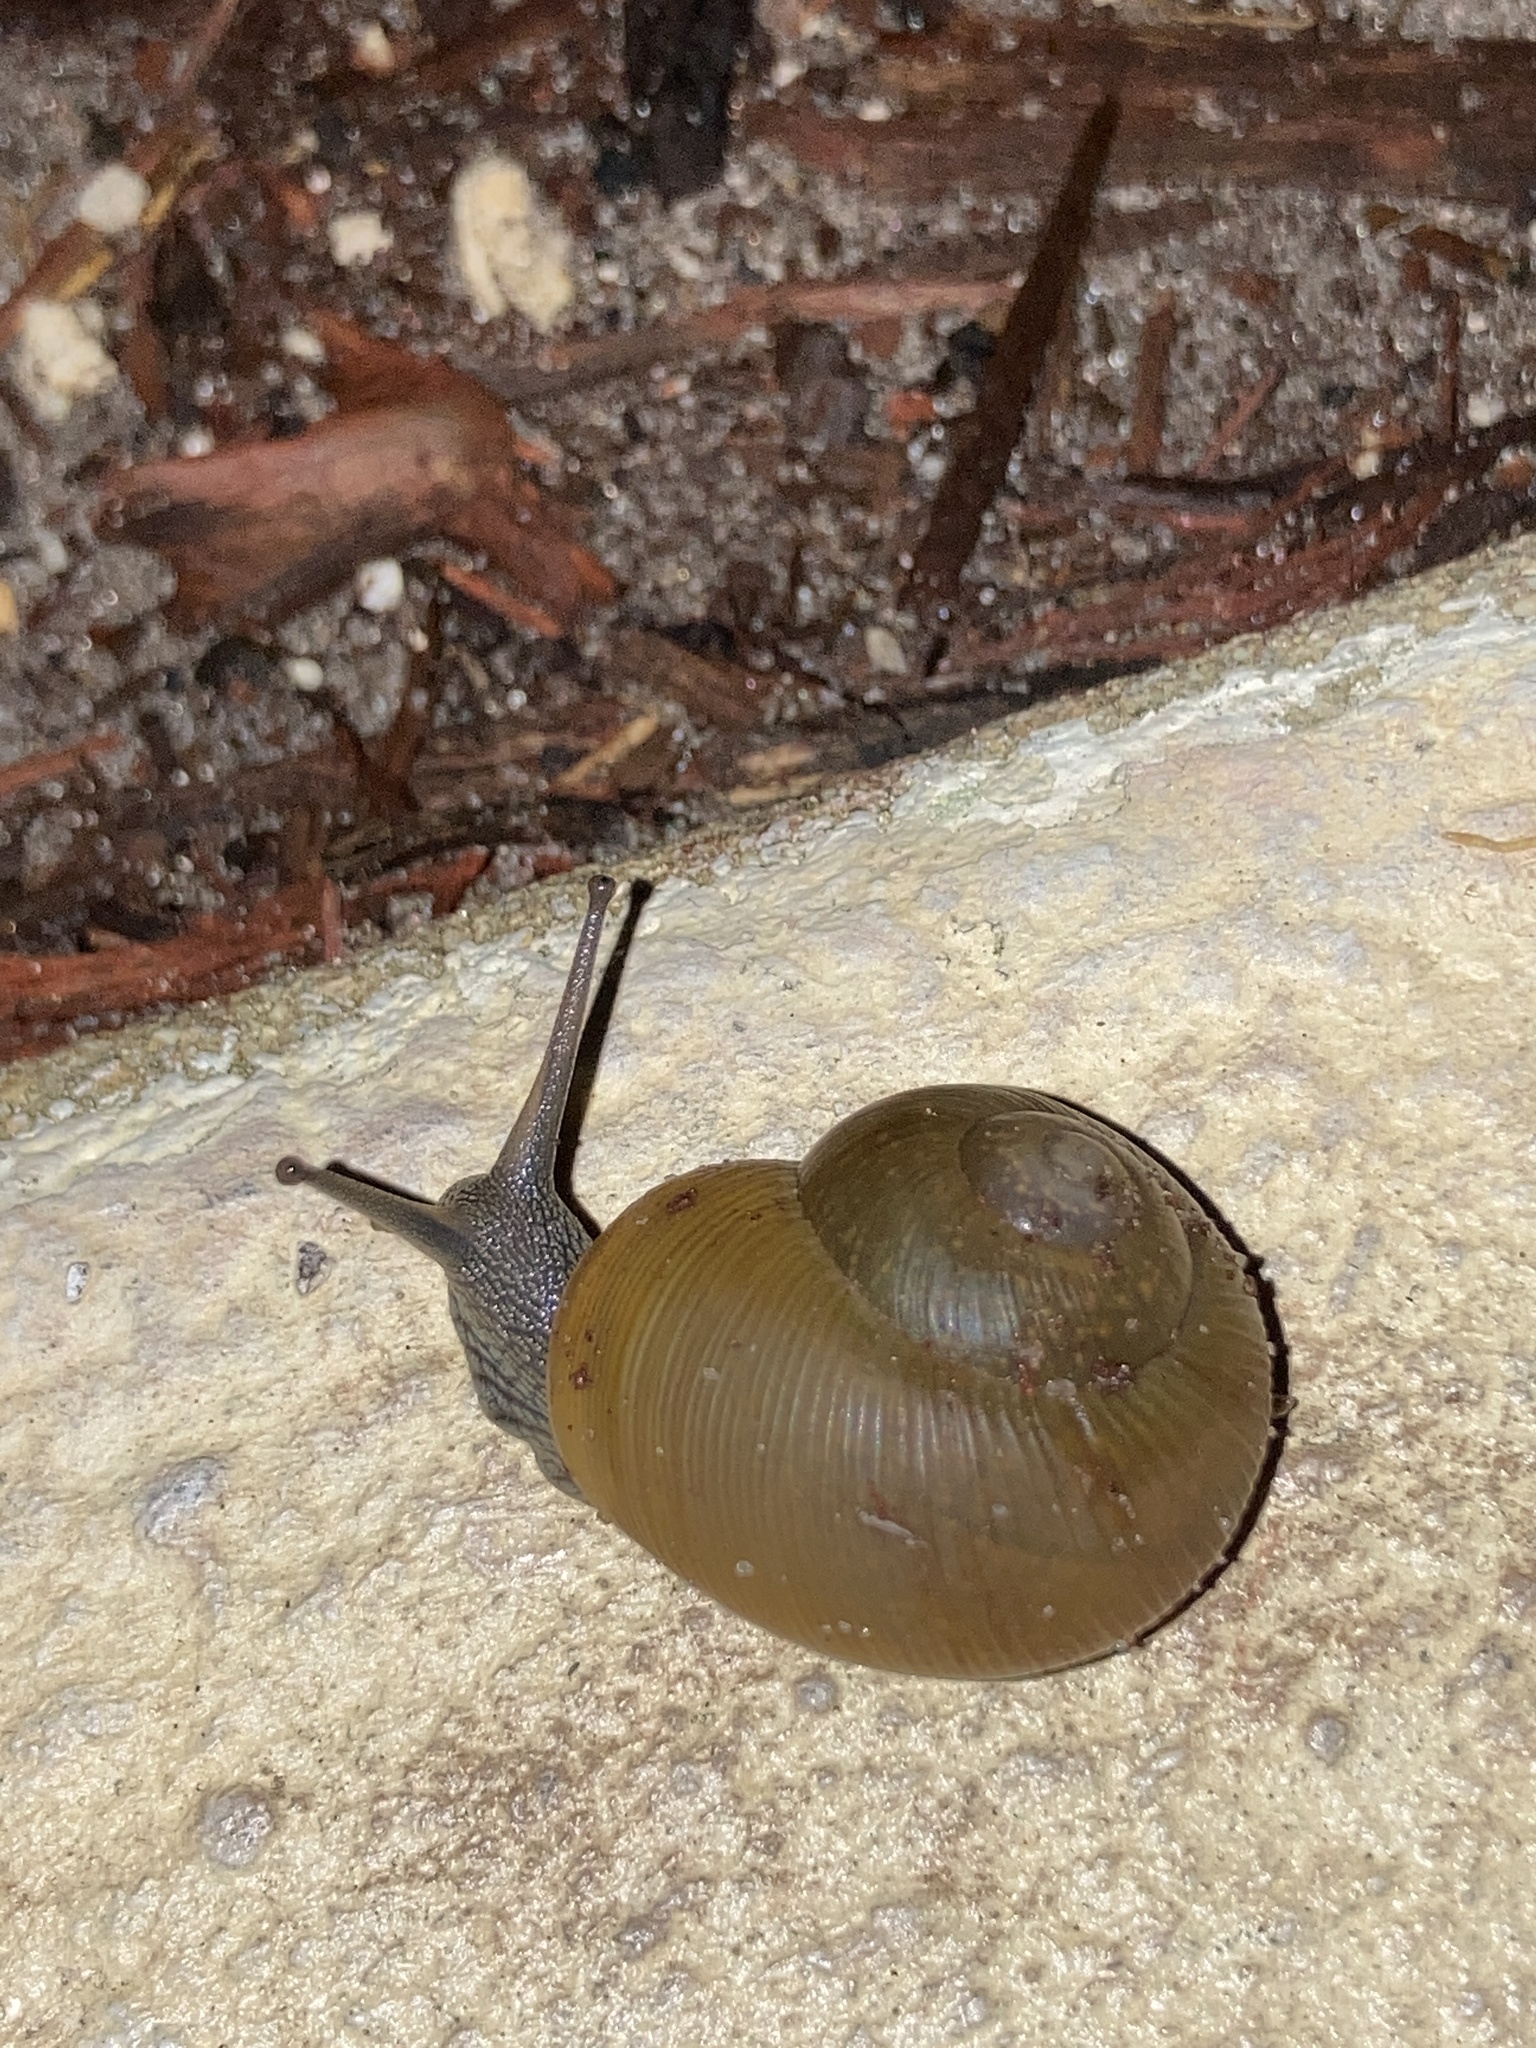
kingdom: Animalia
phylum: Mollusca
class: Gastropoda
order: Stylommatophora
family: Zachrysiidae
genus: Zachrysia
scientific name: Zachrysia provisoria
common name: Garden zachrysia
